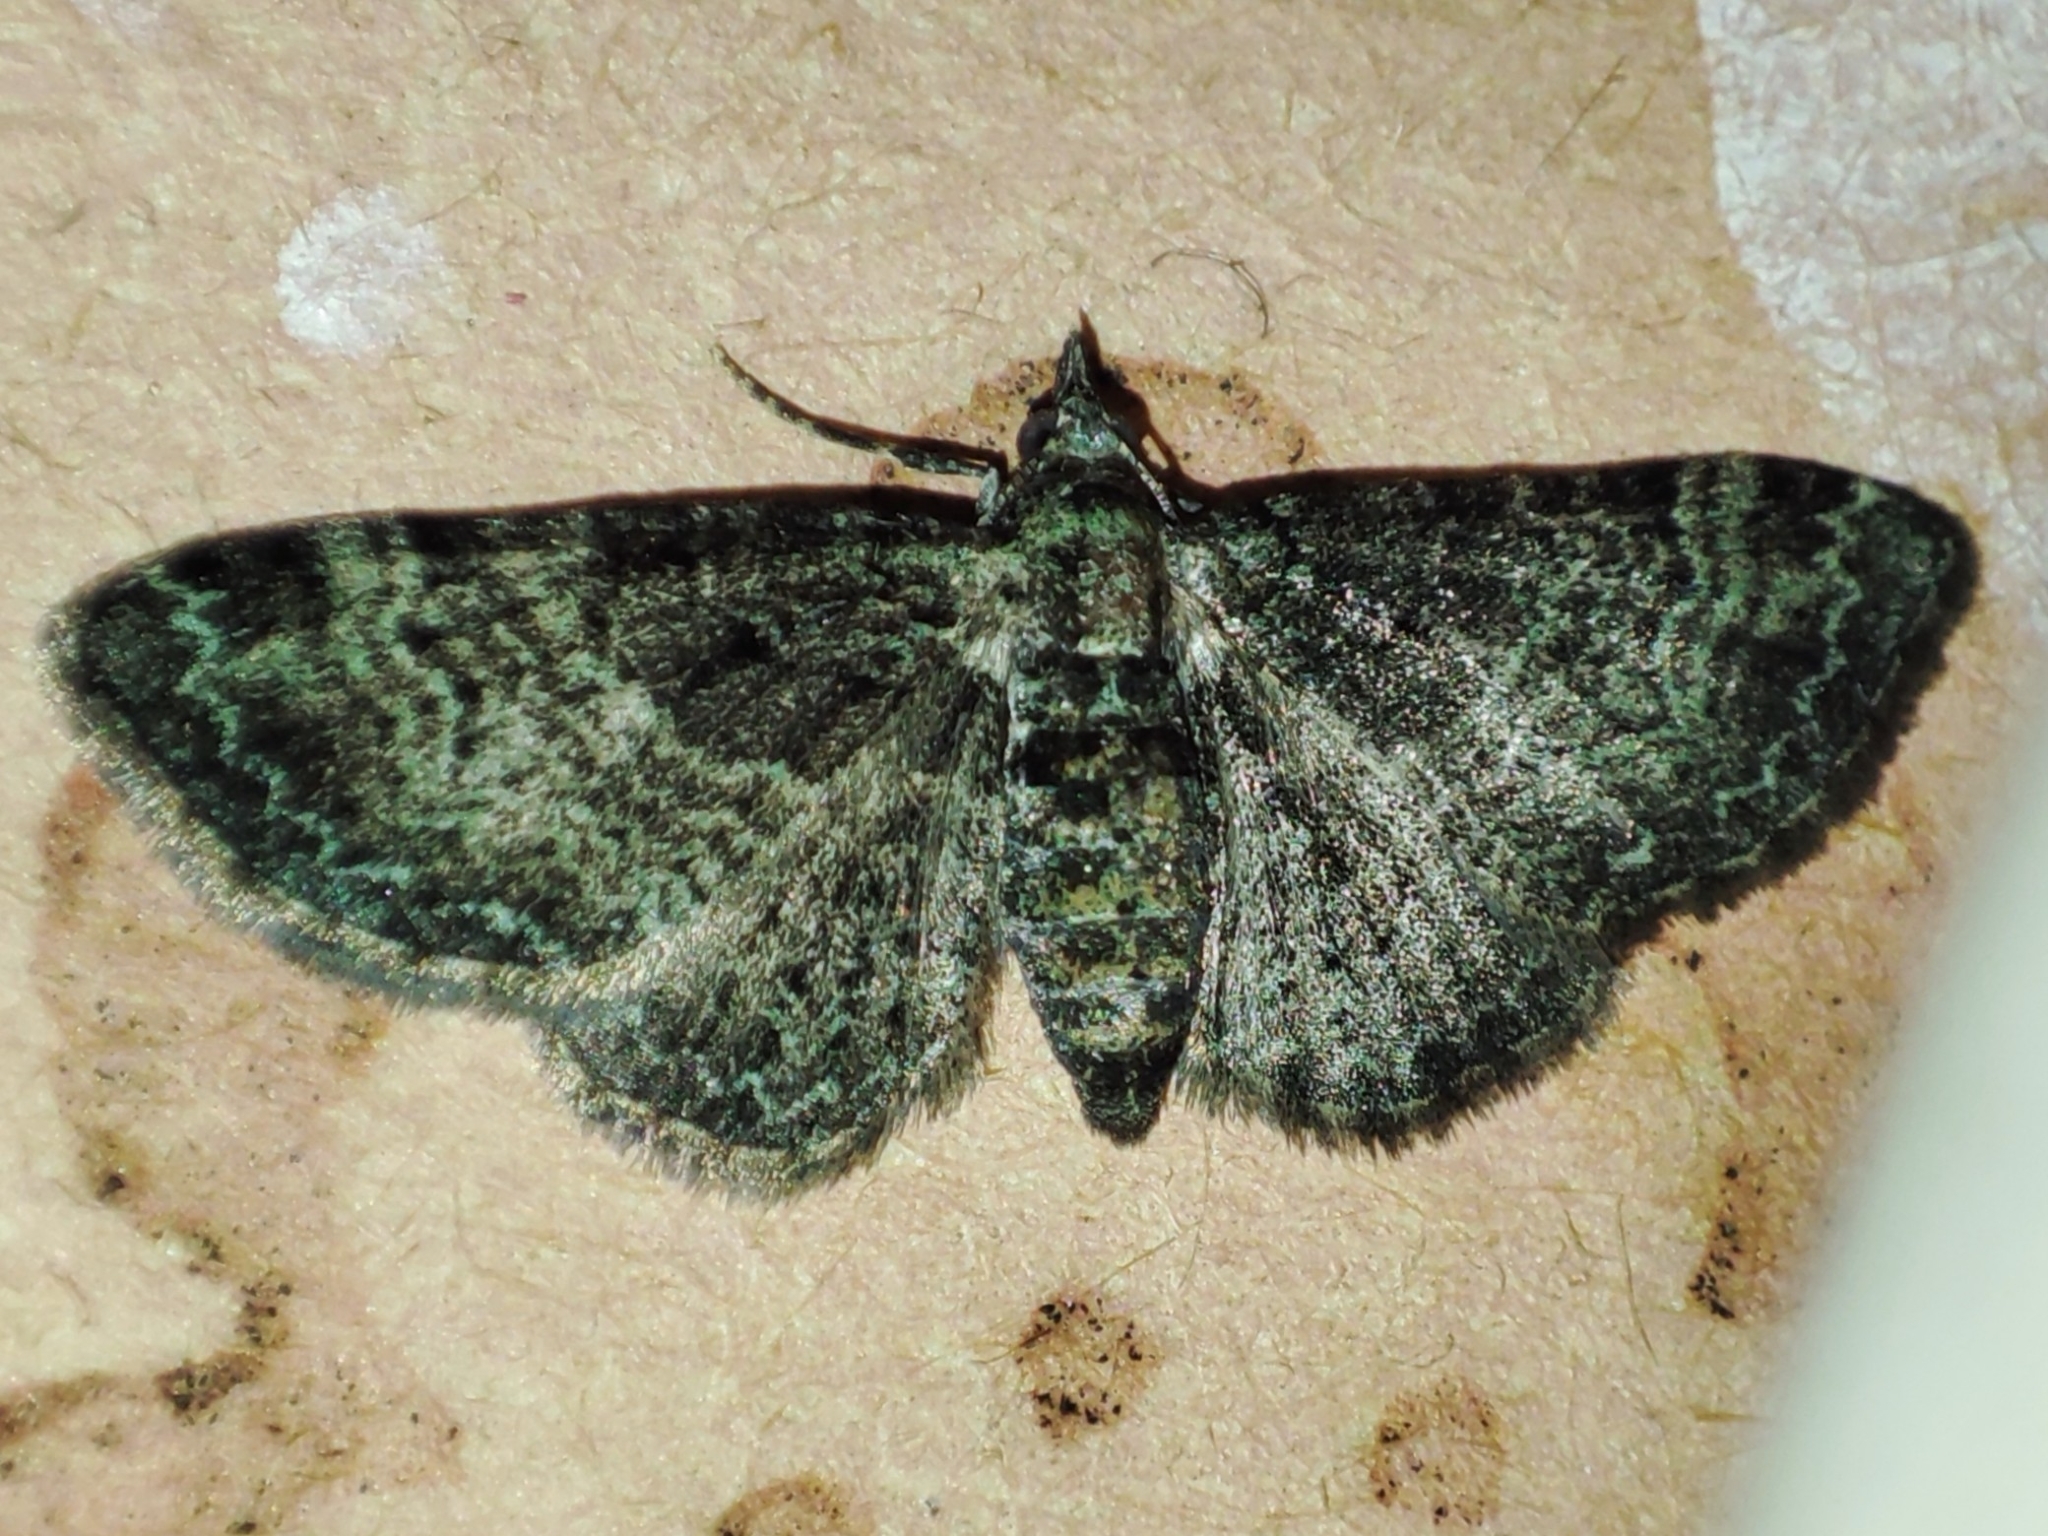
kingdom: Animalia
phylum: Arthropoda
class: Insecta
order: Lepidoptera
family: Geometridae
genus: Pasiphila
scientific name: Pasiphila rectangulata
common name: Green pug
